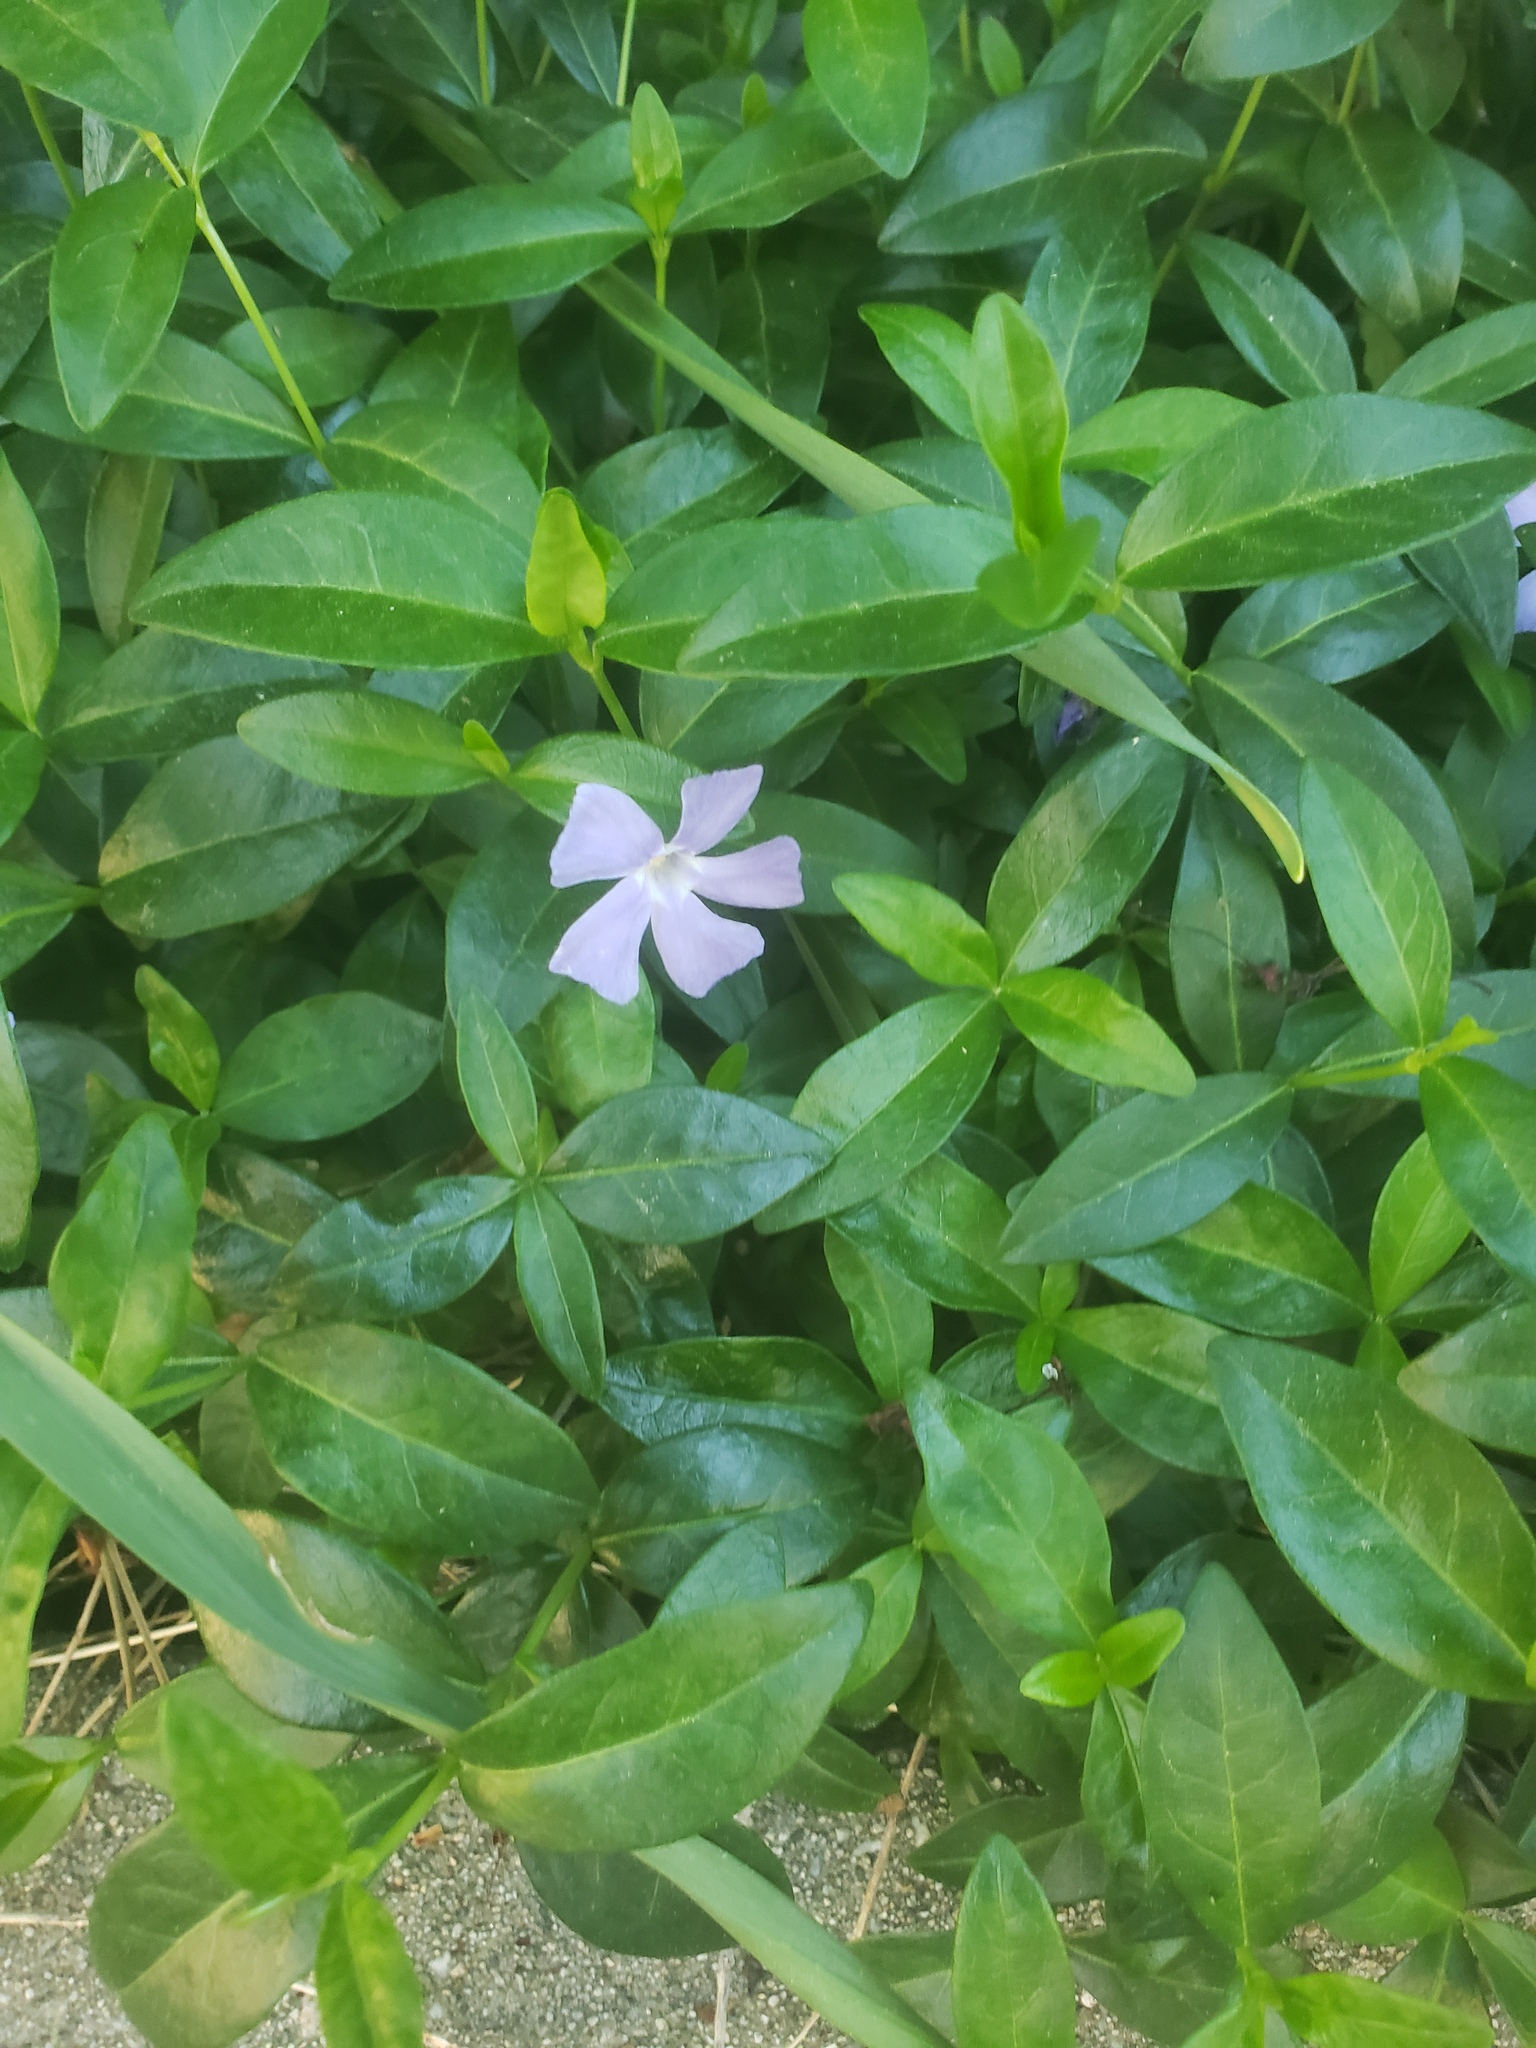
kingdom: Plantae
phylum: Tracheophyta
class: Magnoliopsida
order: Gentianales
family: Apocynaceae
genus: Vinca
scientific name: Vinca minor
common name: Lesser periwinkle
